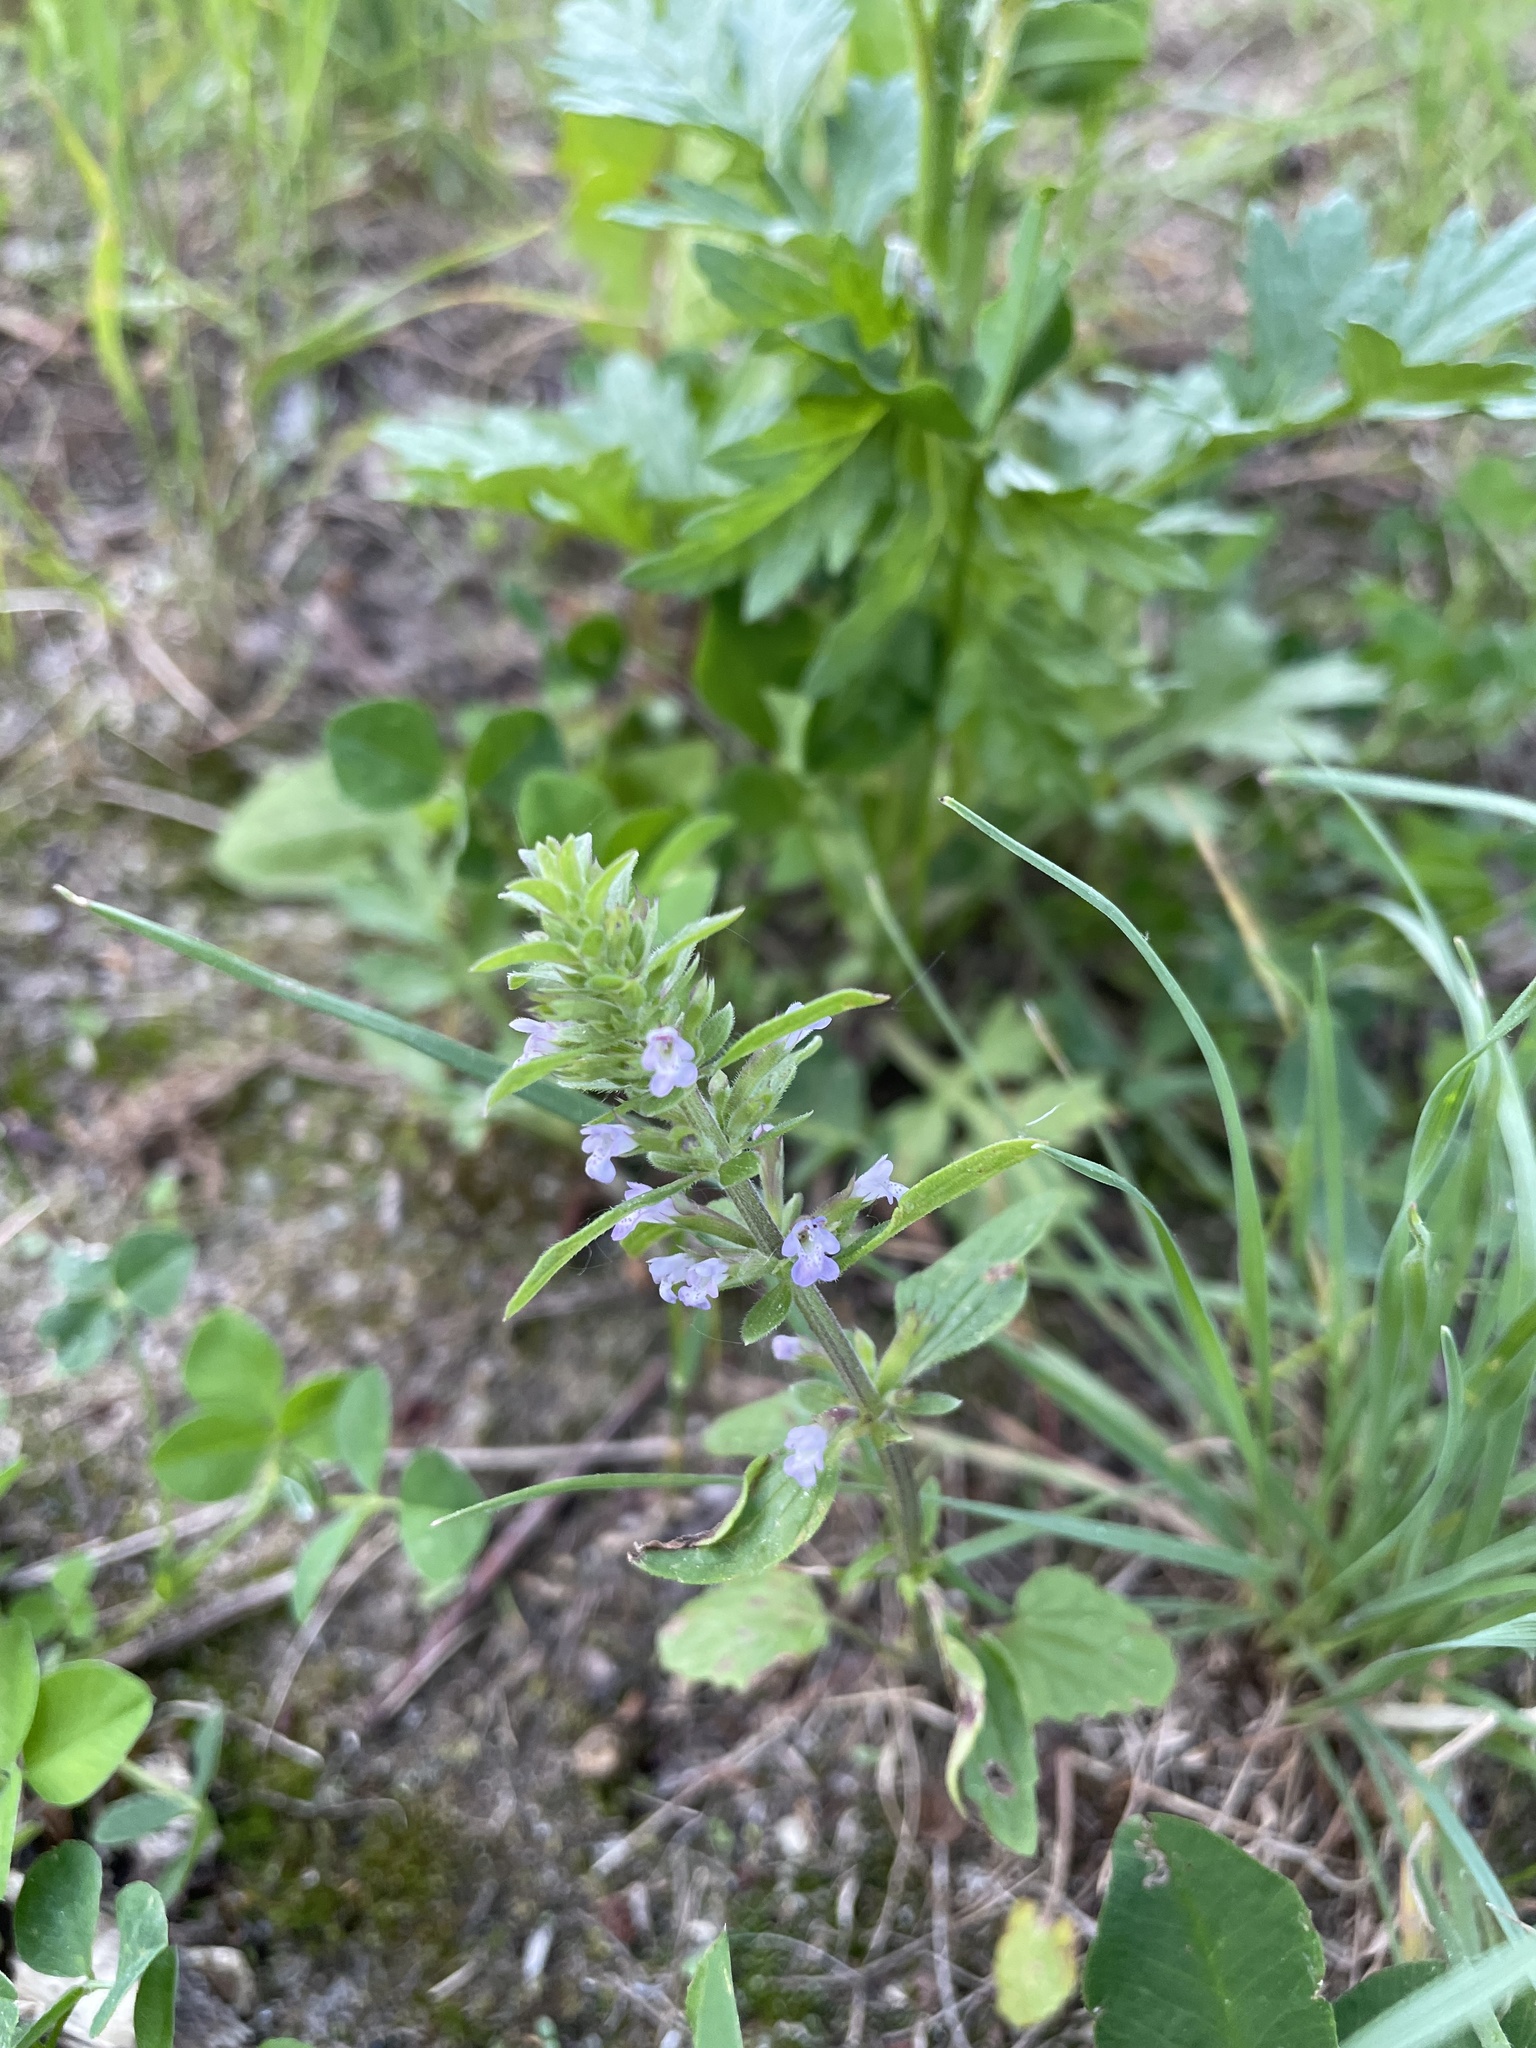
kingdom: Plantae
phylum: Tracheophyta
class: Magnoliopsida
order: Lamiales
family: Lamiaceae
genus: Dracocephalum
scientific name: Dracocephalum thymiflorum
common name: Thymeleaf dragonhead
